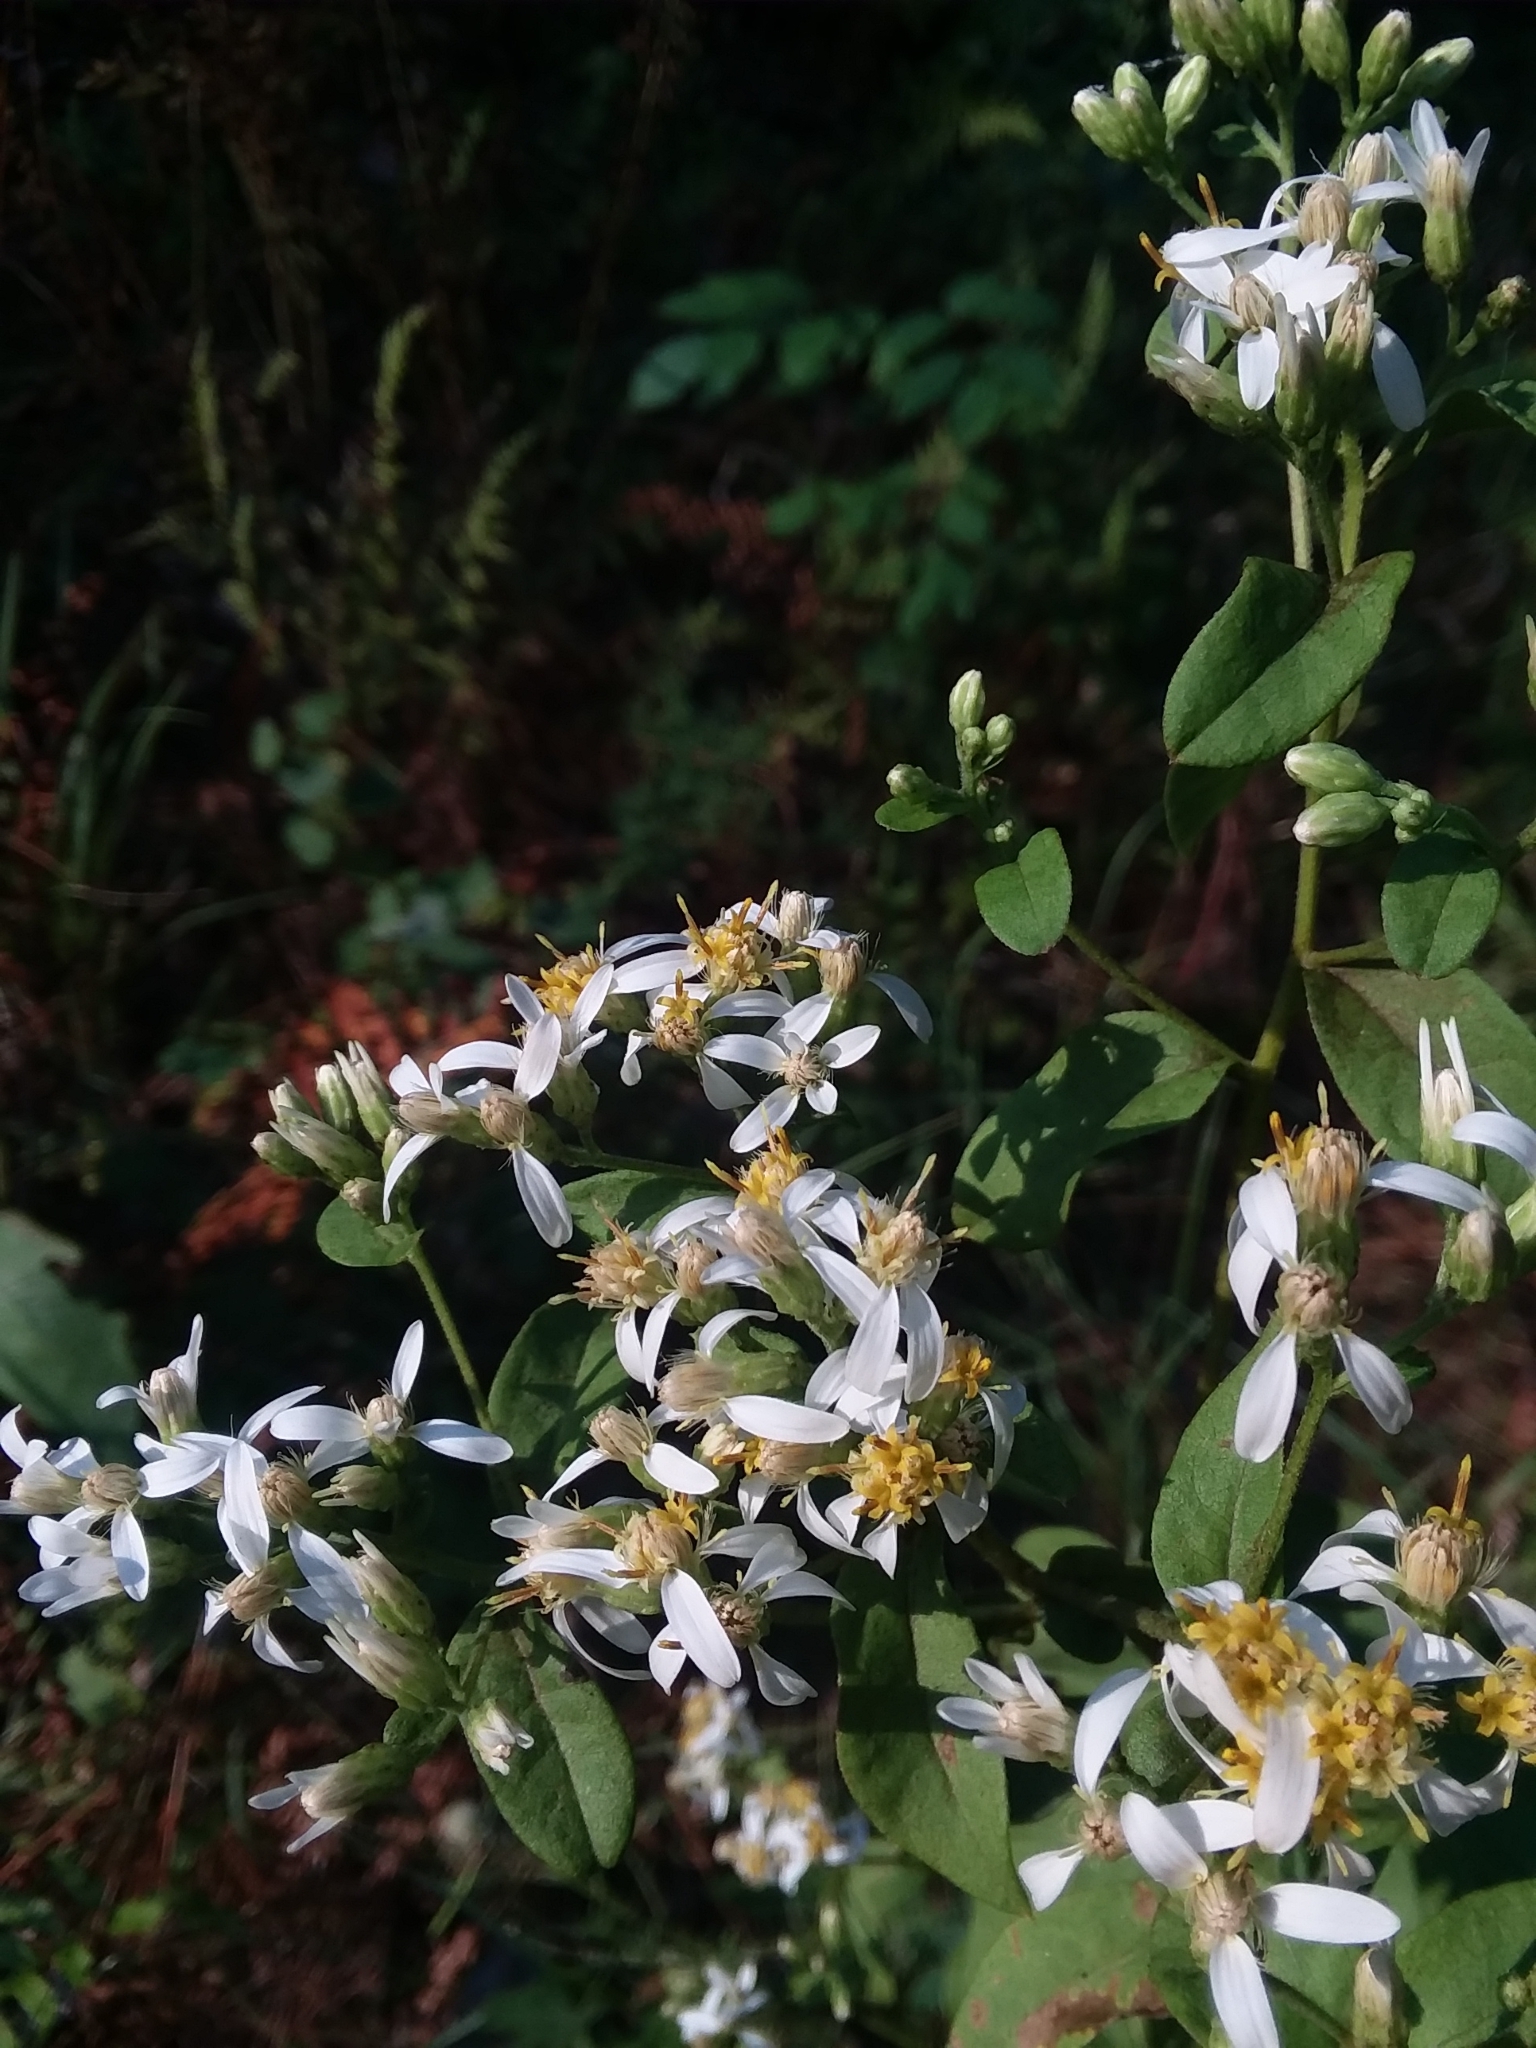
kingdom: Plantae
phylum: Tracheophyta
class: Magnoliopsida
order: Asterales
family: Asteraceae
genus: Doellingeria
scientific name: Doellingeria sericocarpoides
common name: Southern tall flat-top aster
